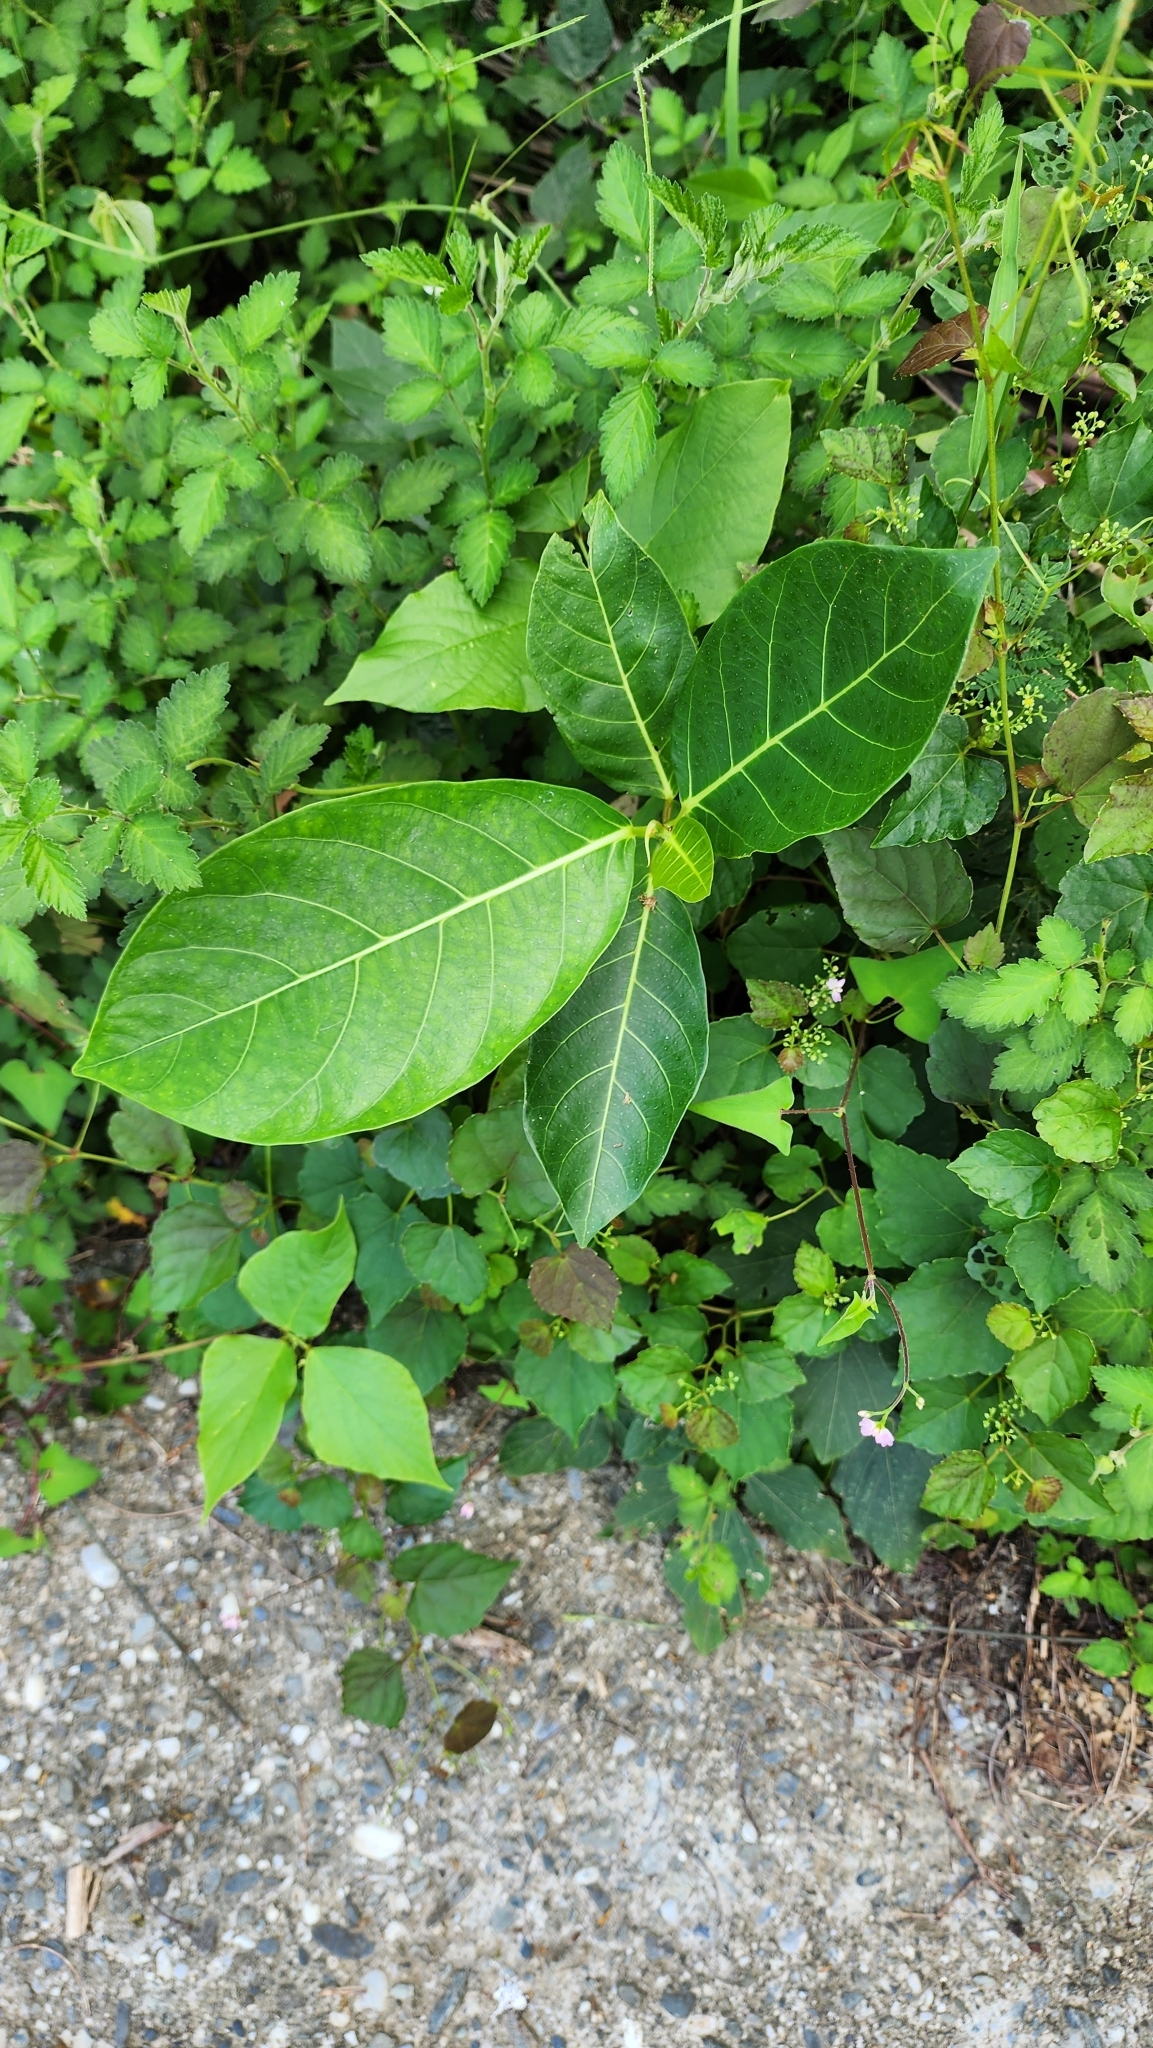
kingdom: Plantae
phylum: Tracheophyta
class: Magnoliopsida
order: Rosales
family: Moraceae
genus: Ficus
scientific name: Ficus septica
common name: Septic fig
